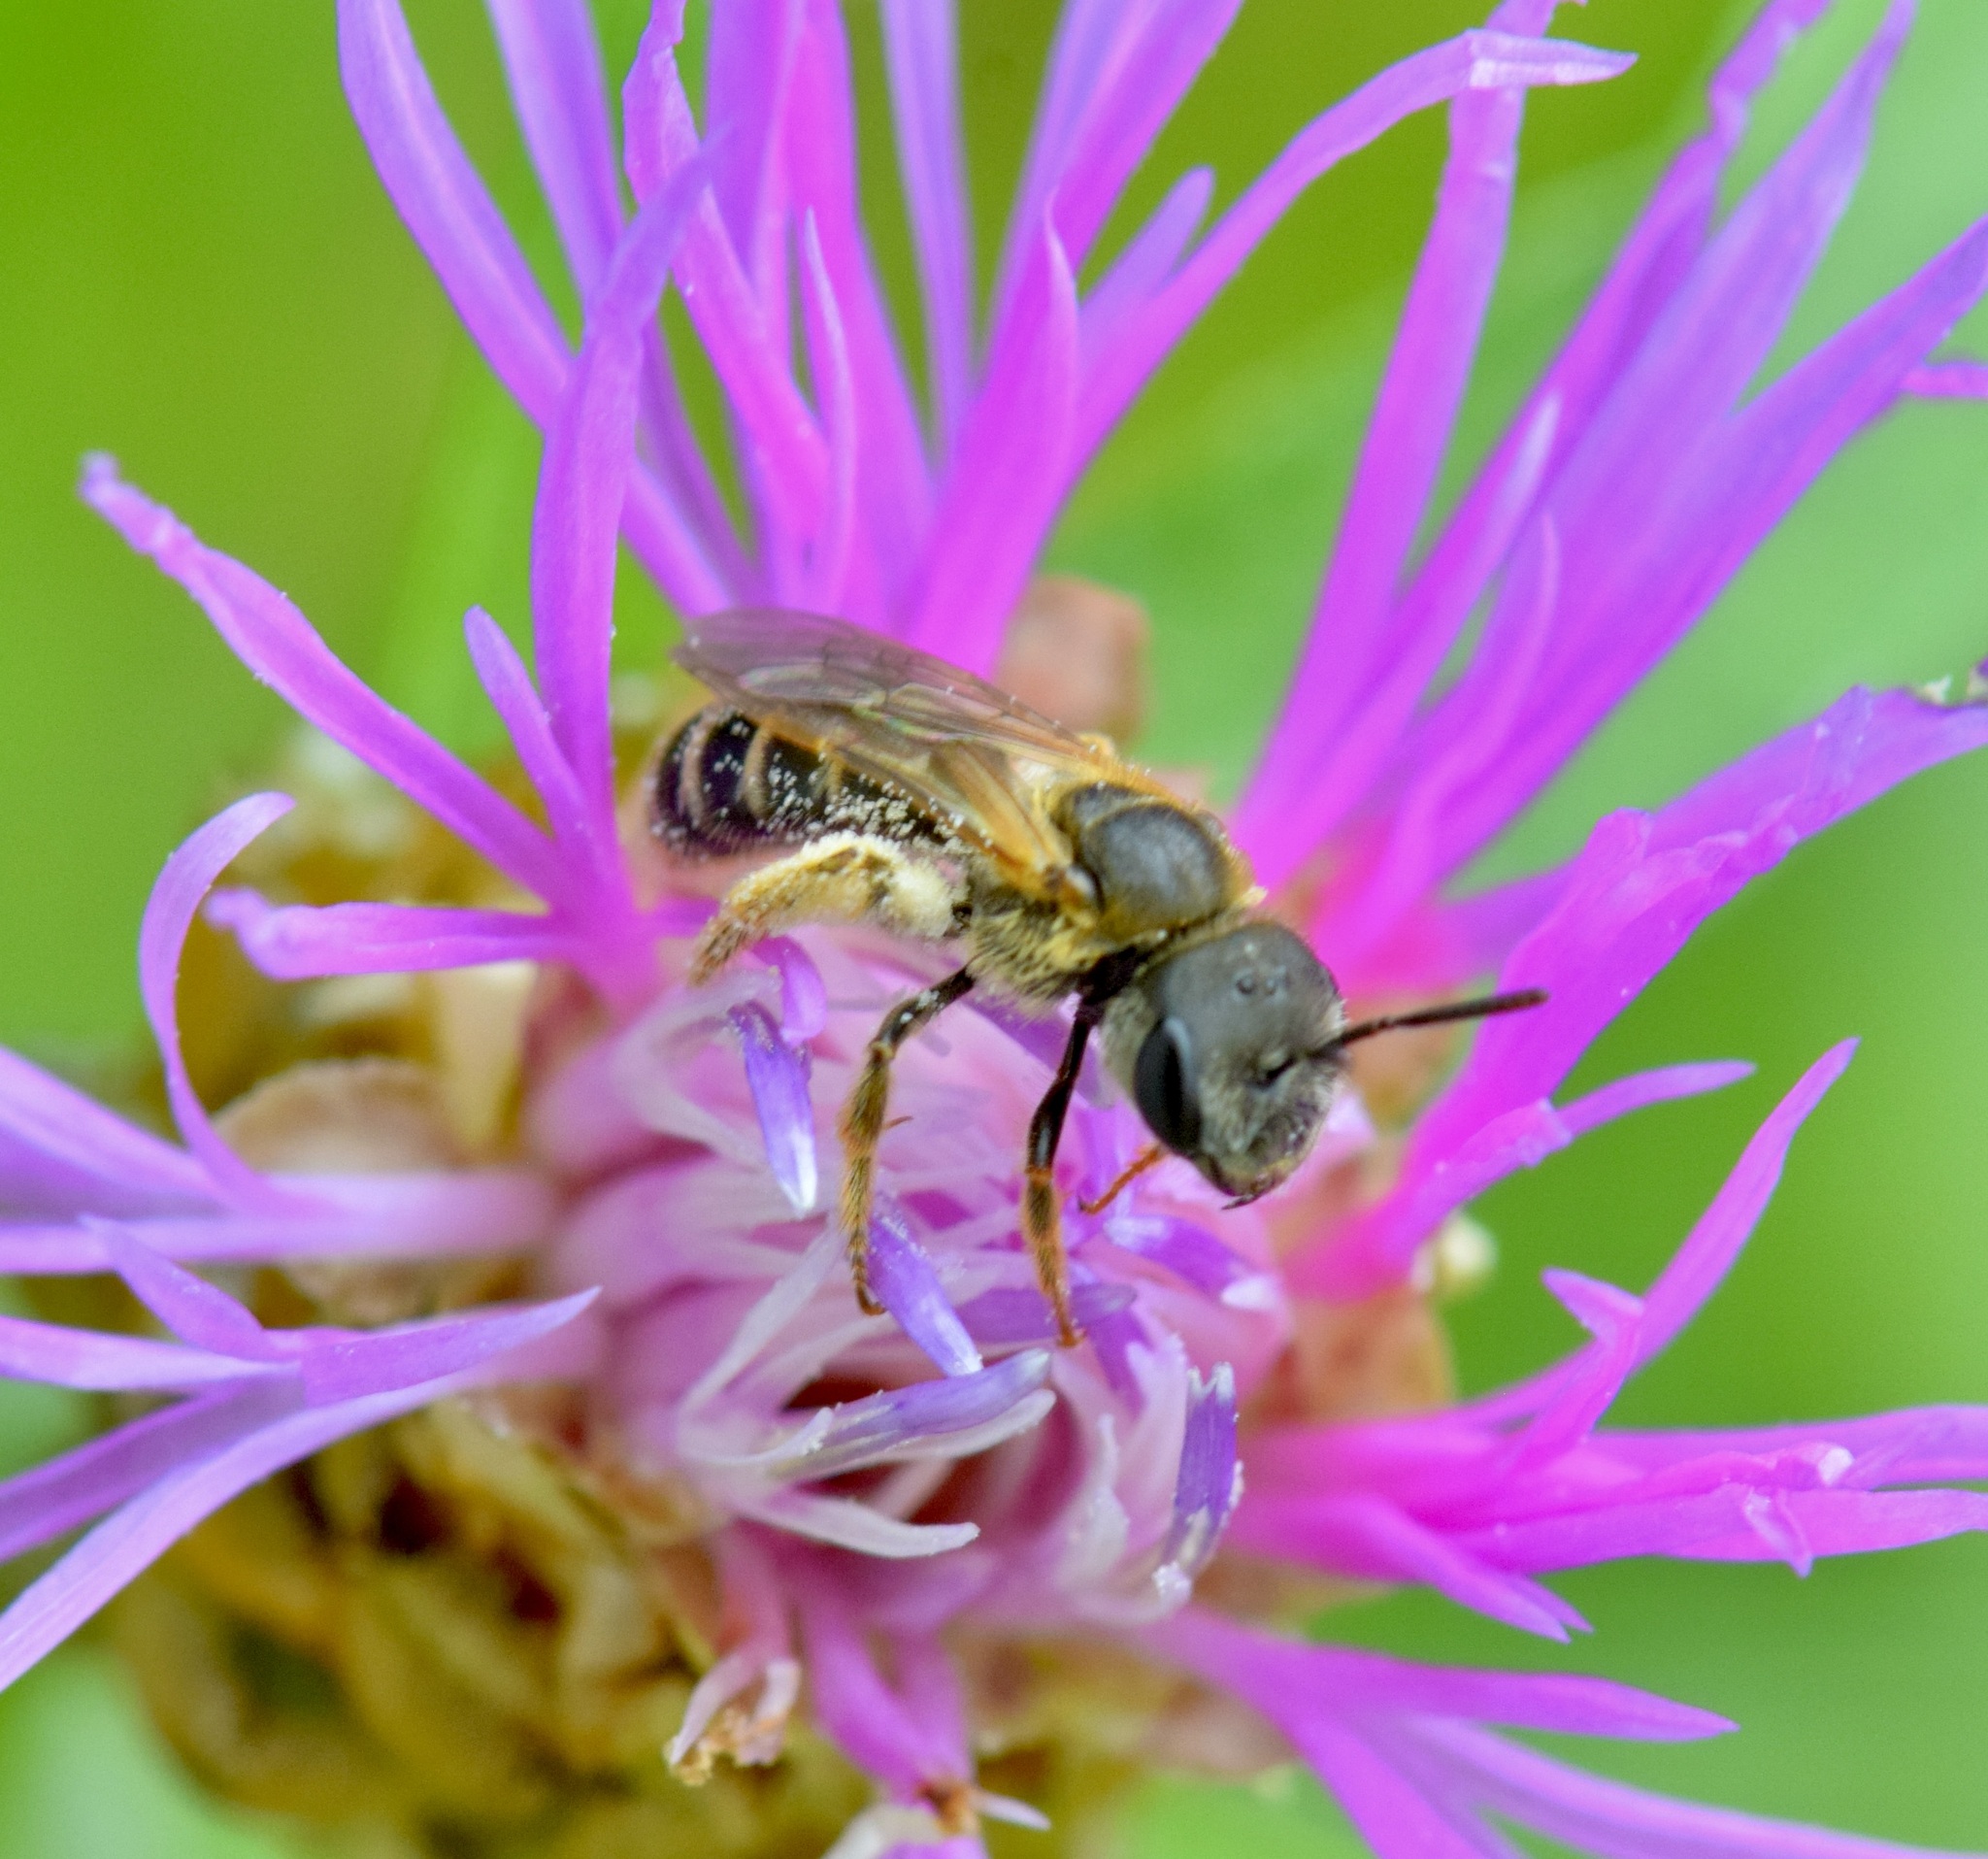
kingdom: Animalia
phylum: Arthropoda
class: Insecta
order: Hymenoptera
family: Halictidae
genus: Halictus
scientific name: Halictus ligatus
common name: Ligated furrow bee
